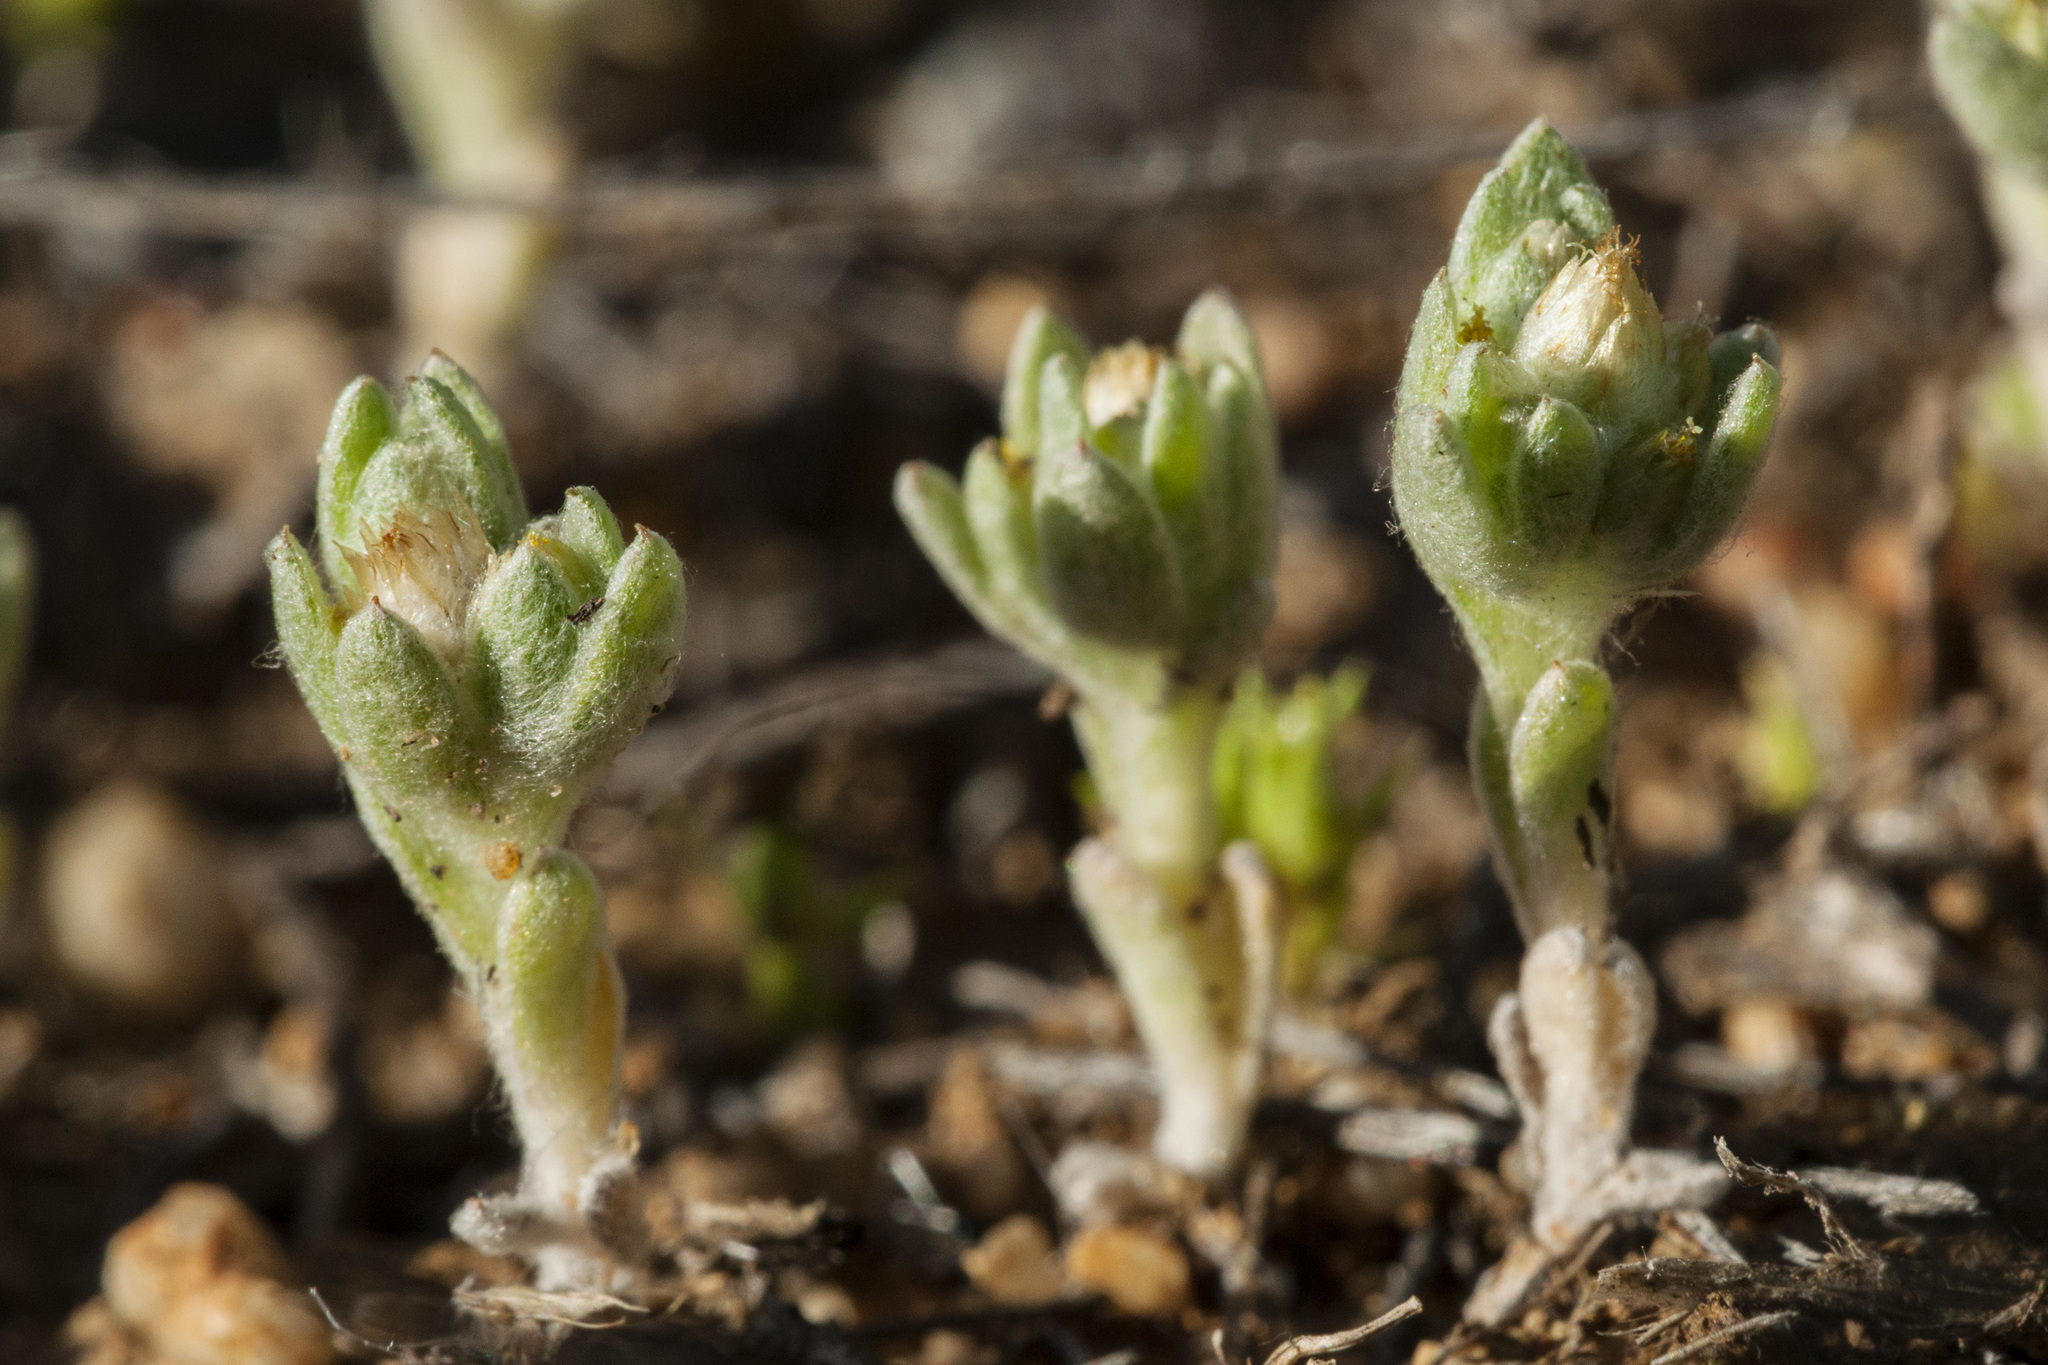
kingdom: Plantae
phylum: Tracheophyta
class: Magnoliopsida
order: Asterales
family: Asteraceae
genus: Stylocline
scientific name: Stylocline sonorensis
